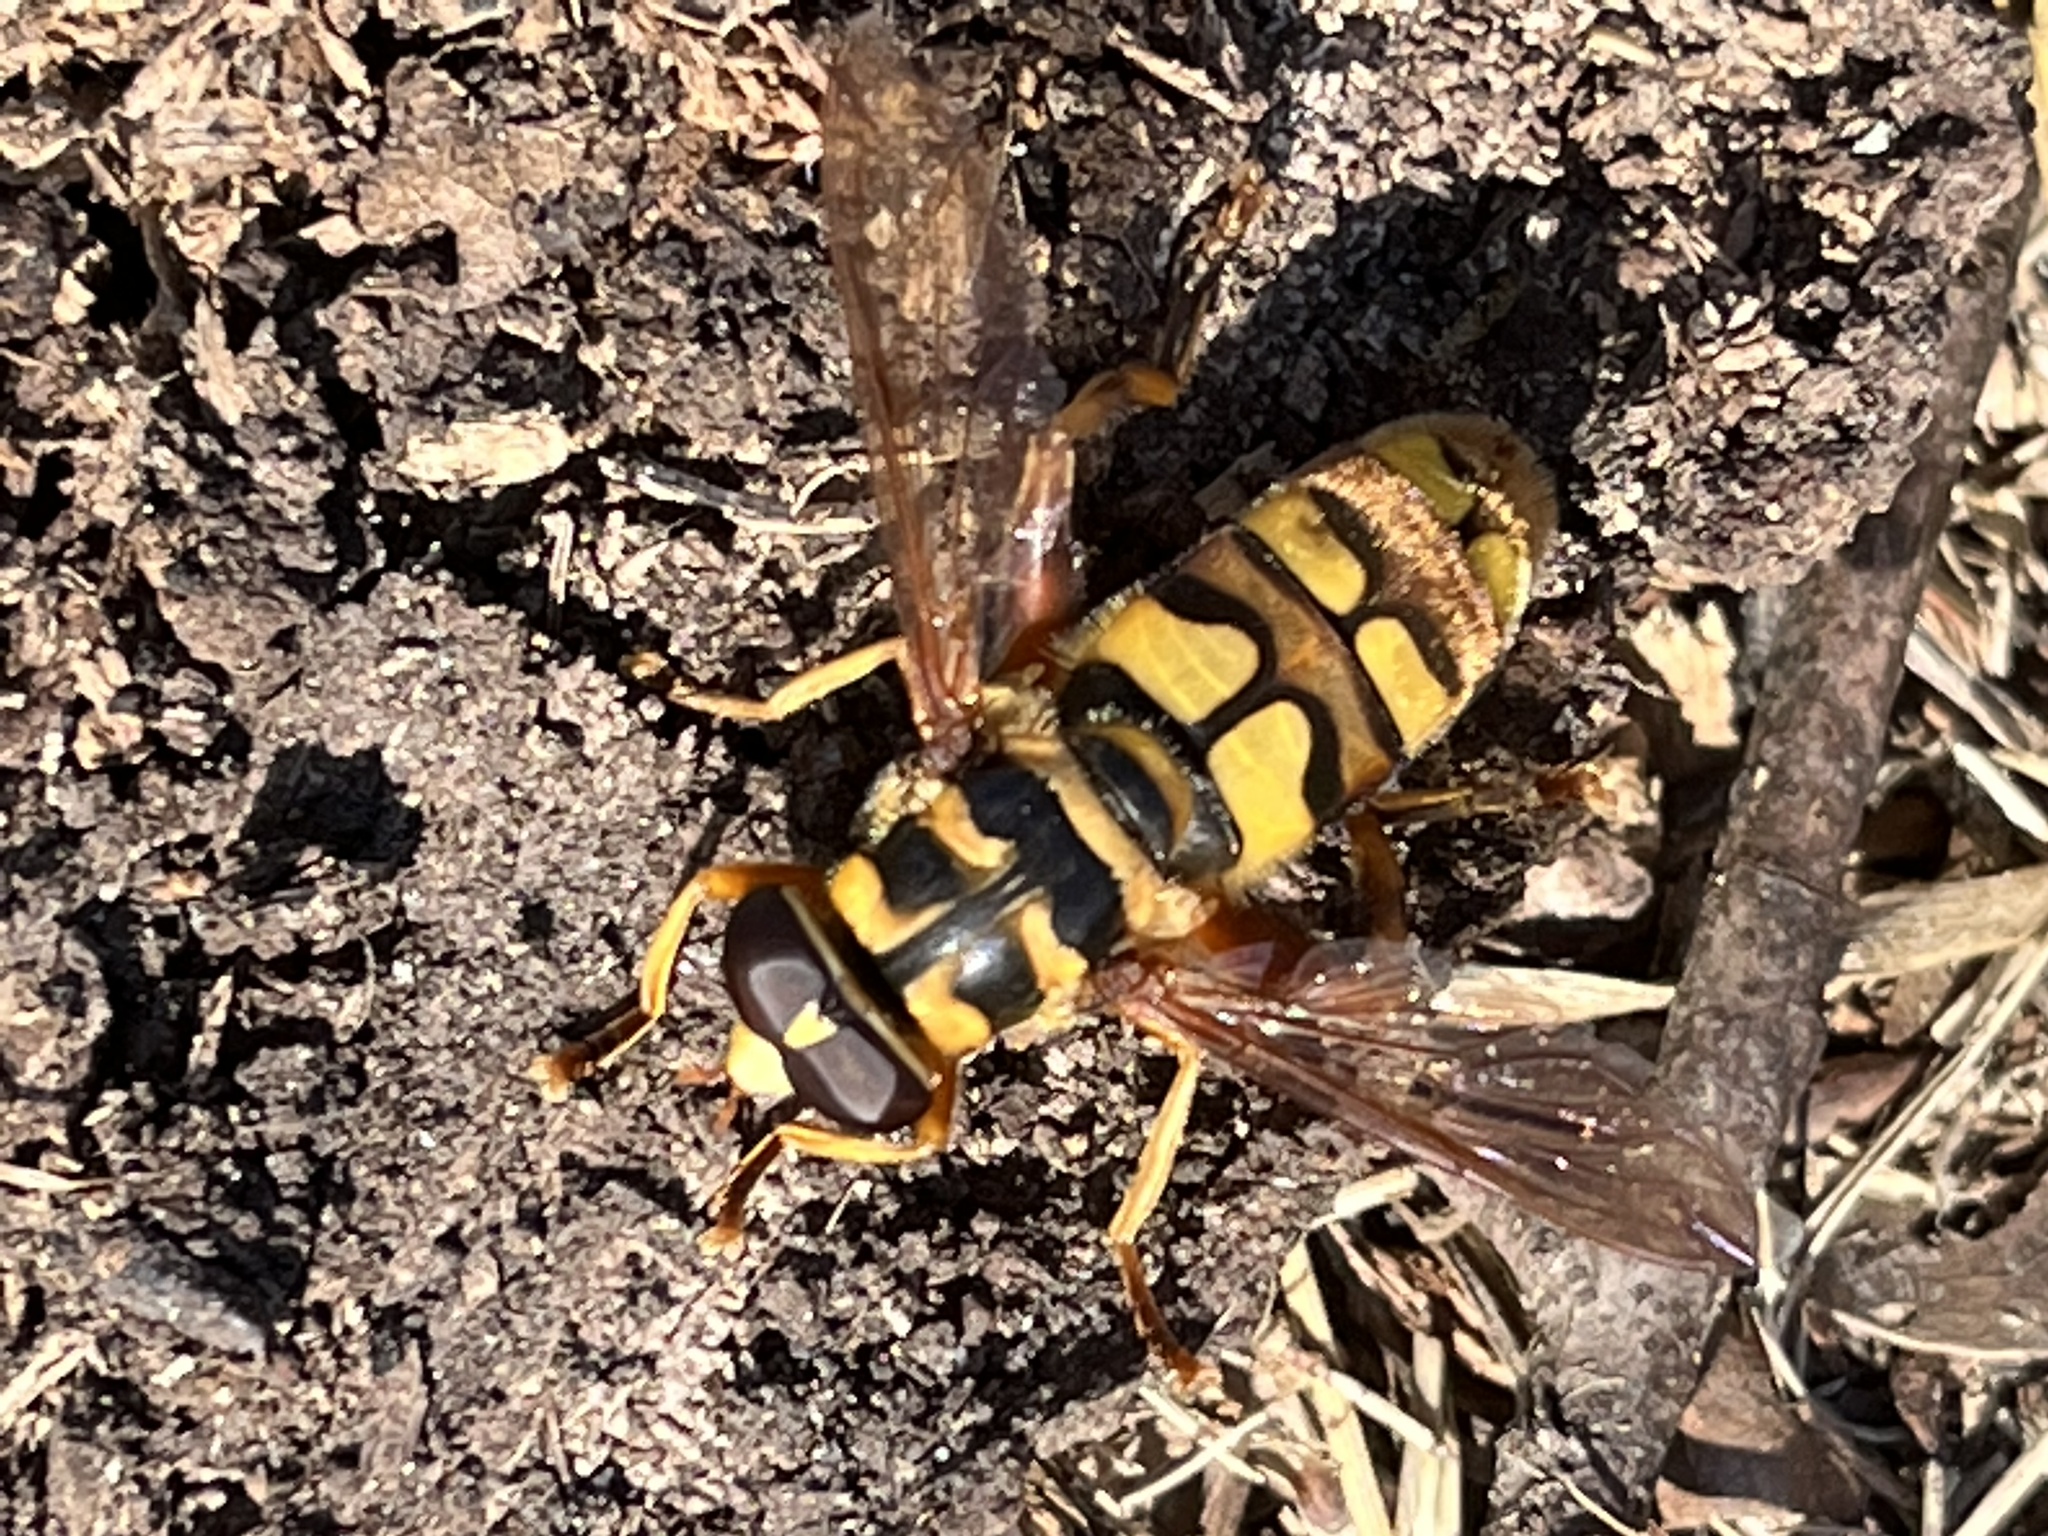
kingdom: Animalia
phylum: Arthropoda
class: Insecta
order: Diptera
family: Syrphidae
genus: Milesia
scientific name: Milesia virginiensis
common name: Virginia giant
